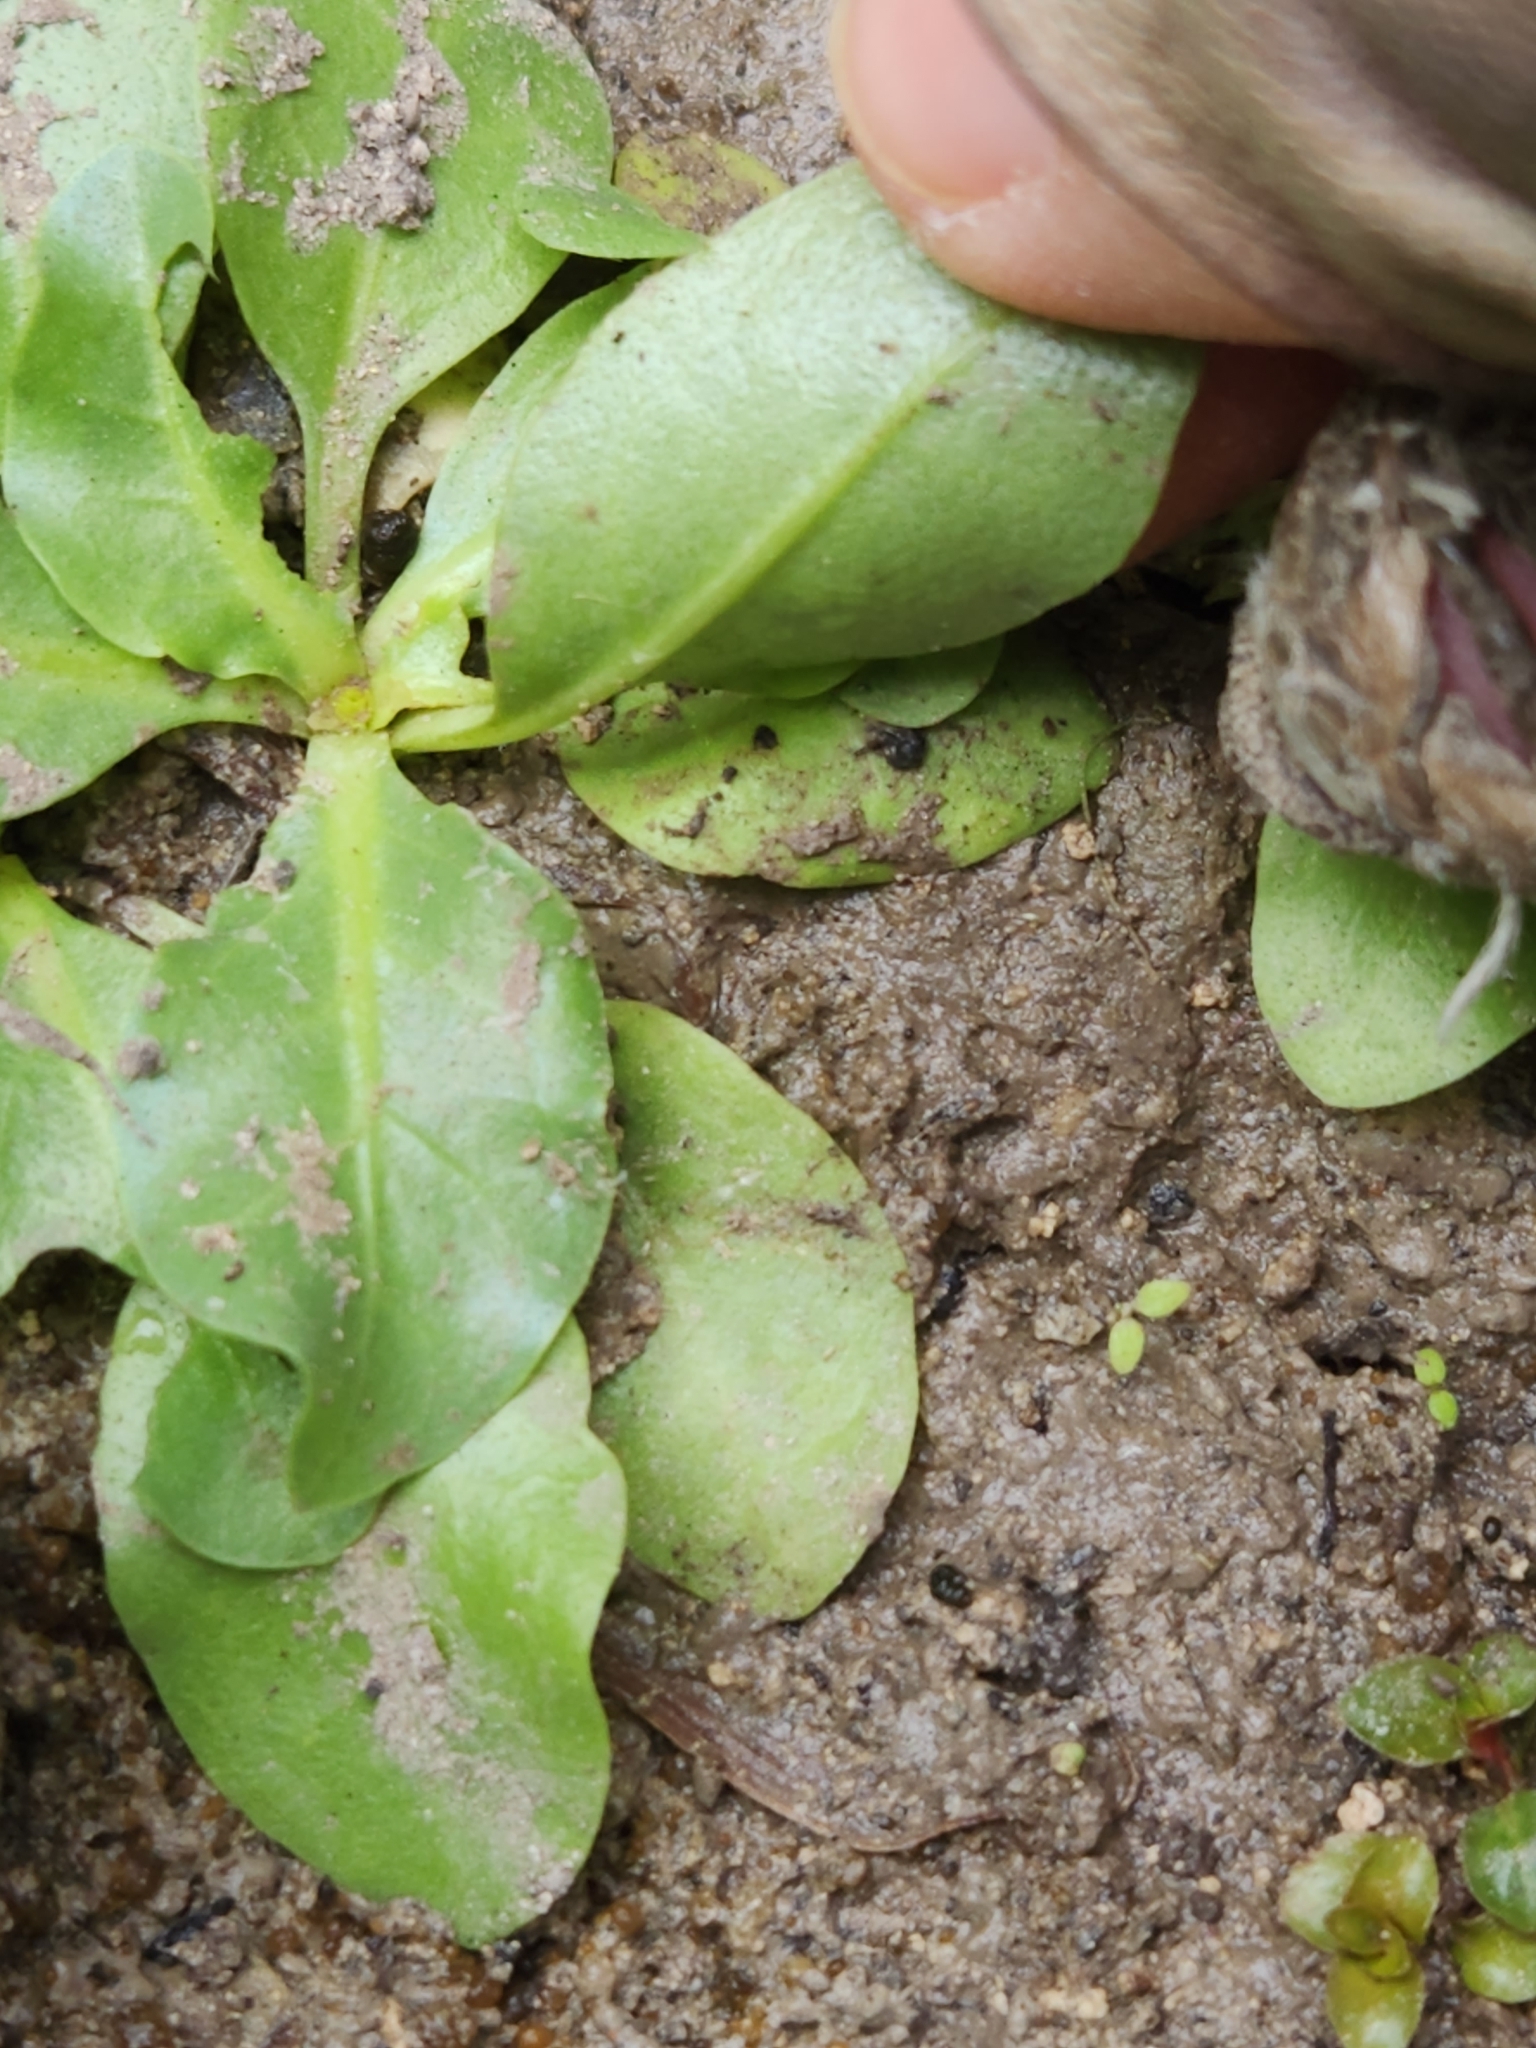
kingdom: Plantae
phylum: Tracheophyta
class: Magnoliopsida
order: Ericales
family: Primulaceae
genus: Samolus
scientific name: Samolus parviflorus
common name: False water pimpernel
